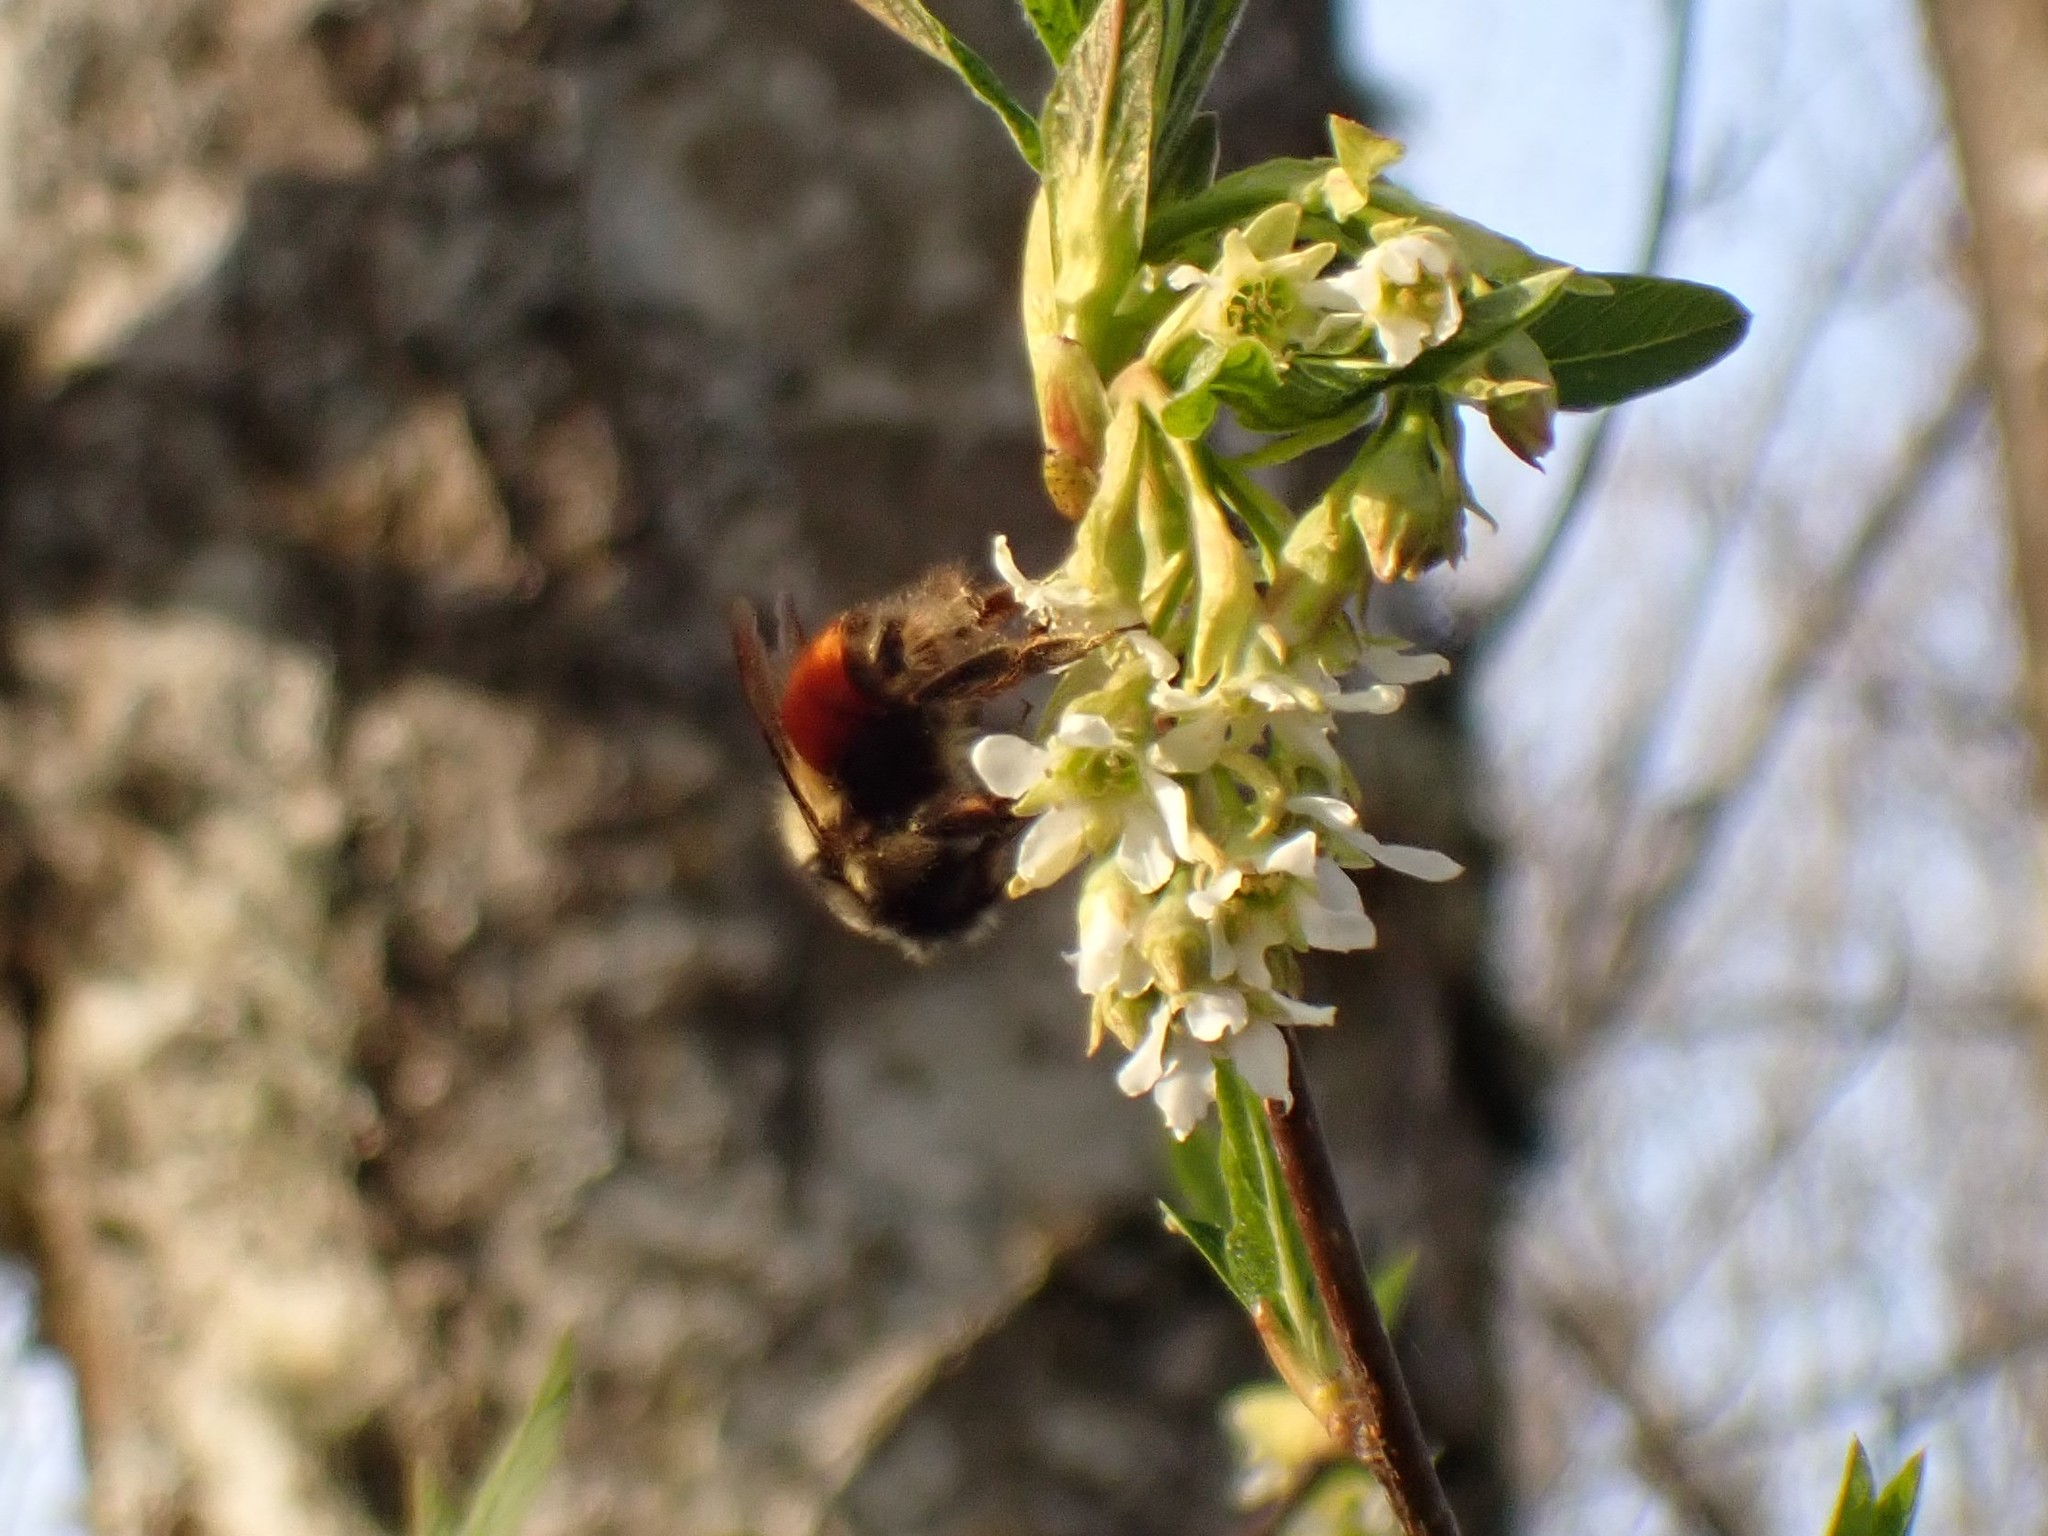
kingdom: Animalia
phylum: Arthropoda
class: Insecta
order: Hymenoptera
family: Apidae
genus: Bombus
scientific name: Bombus melanopygus
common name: Black tail bumble bee
